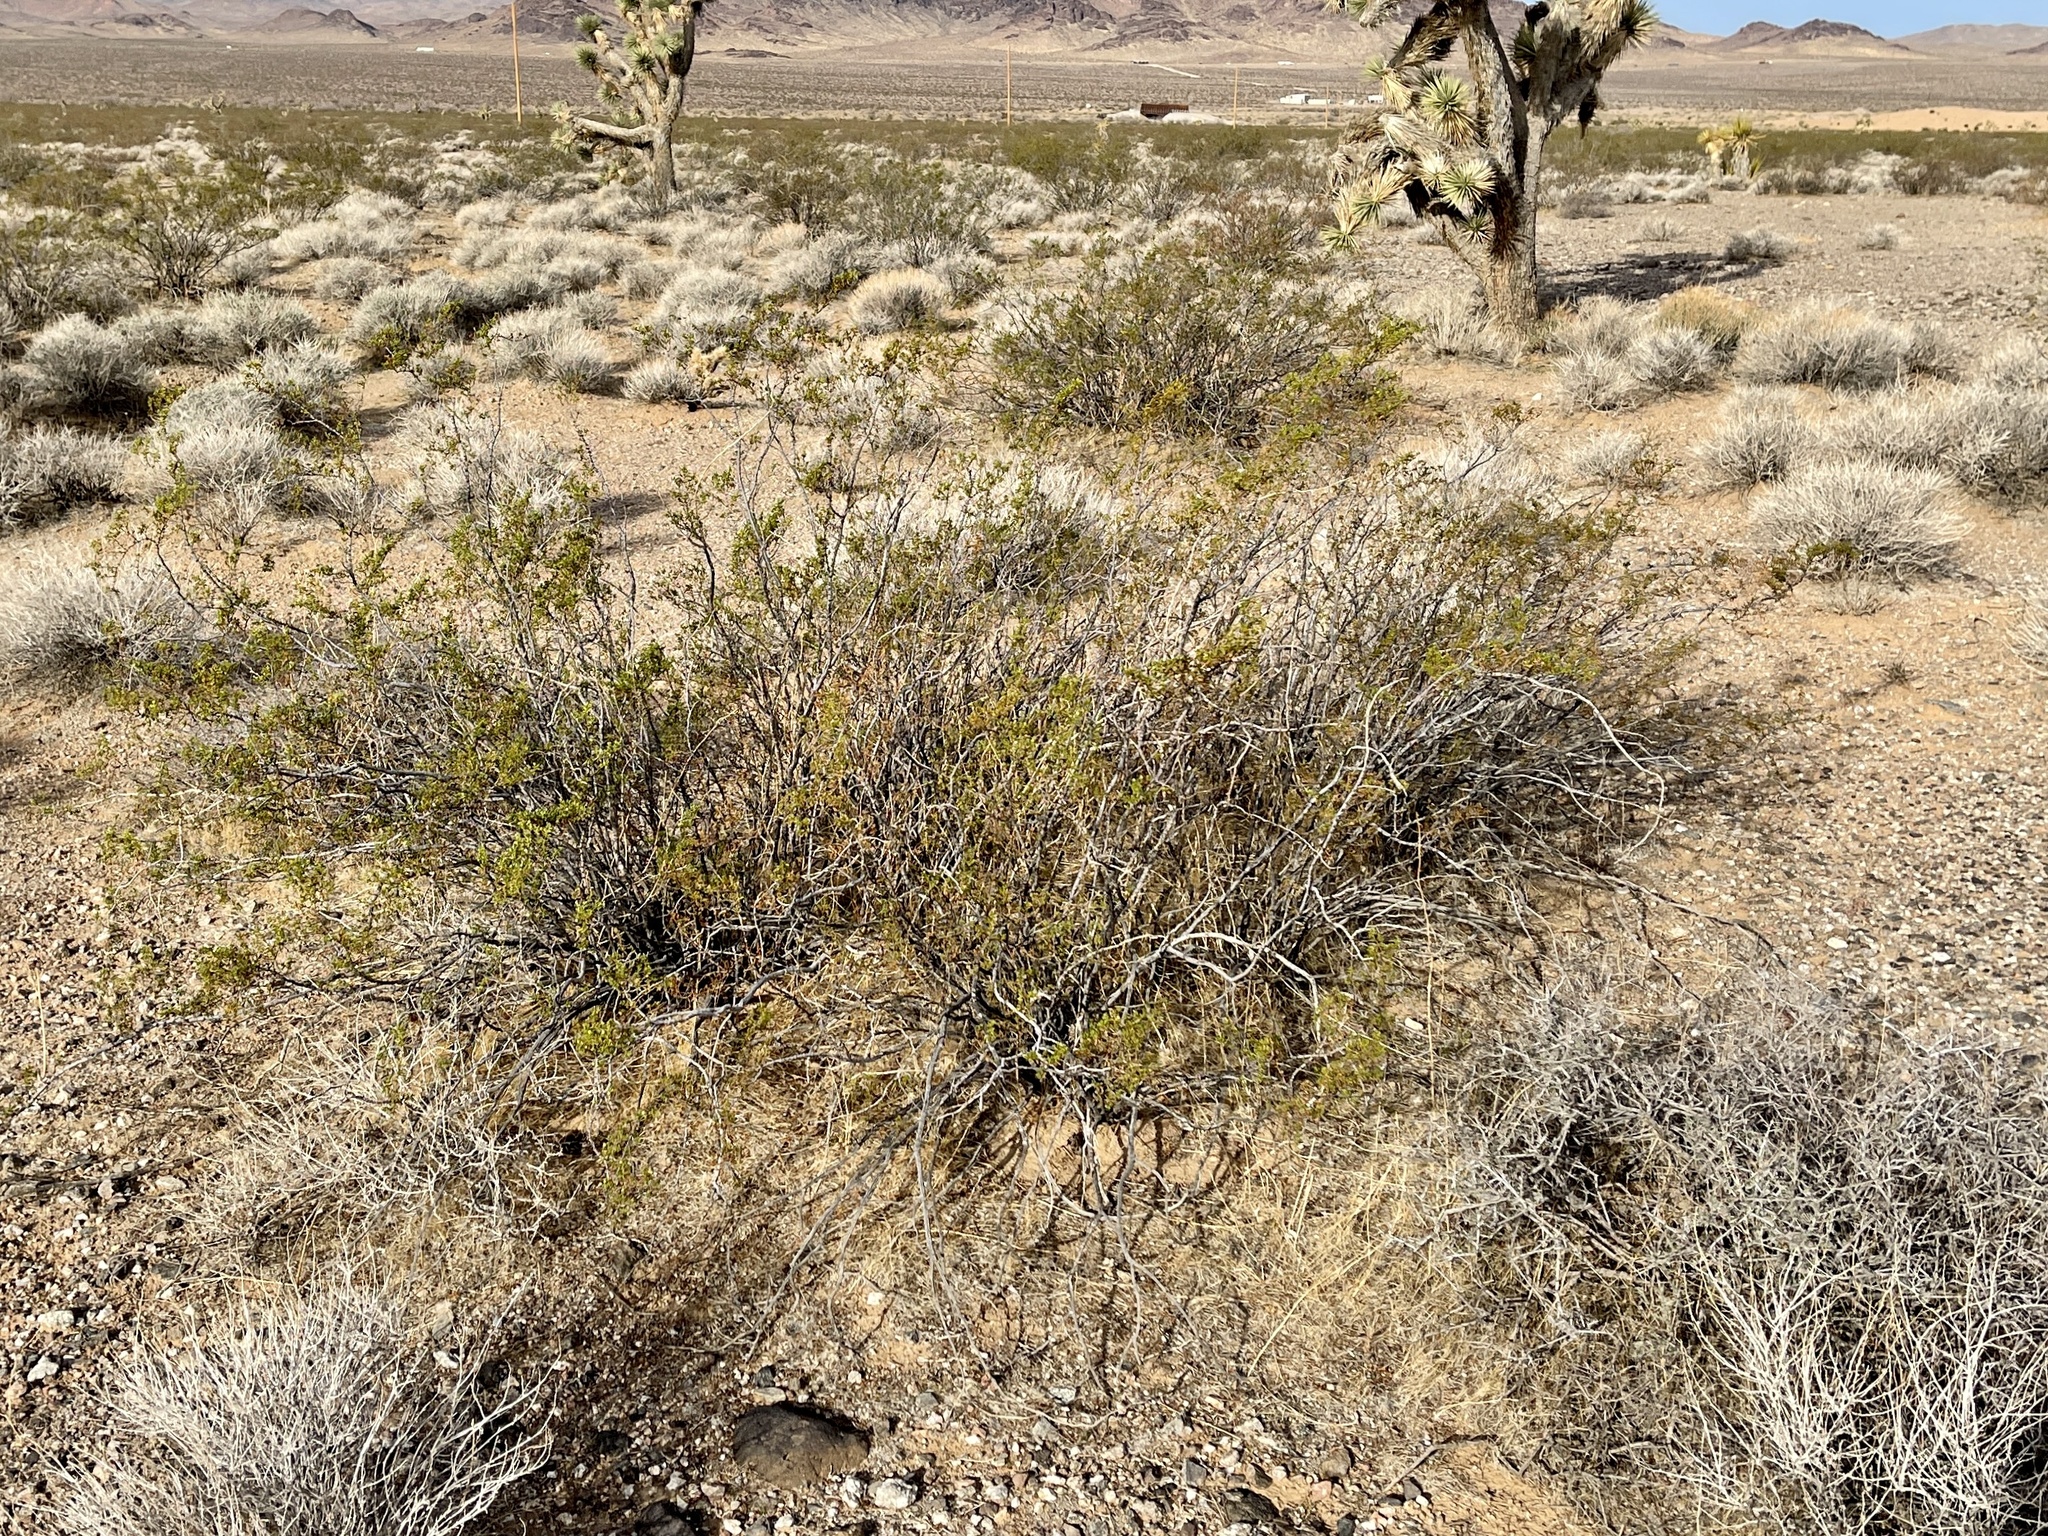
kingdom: Plantae
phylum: Tracheophyta
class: Magnoliopsida
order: Zygophyllales
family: Zygophyllaceae
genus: Larrea
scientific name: Larrea tridentata
